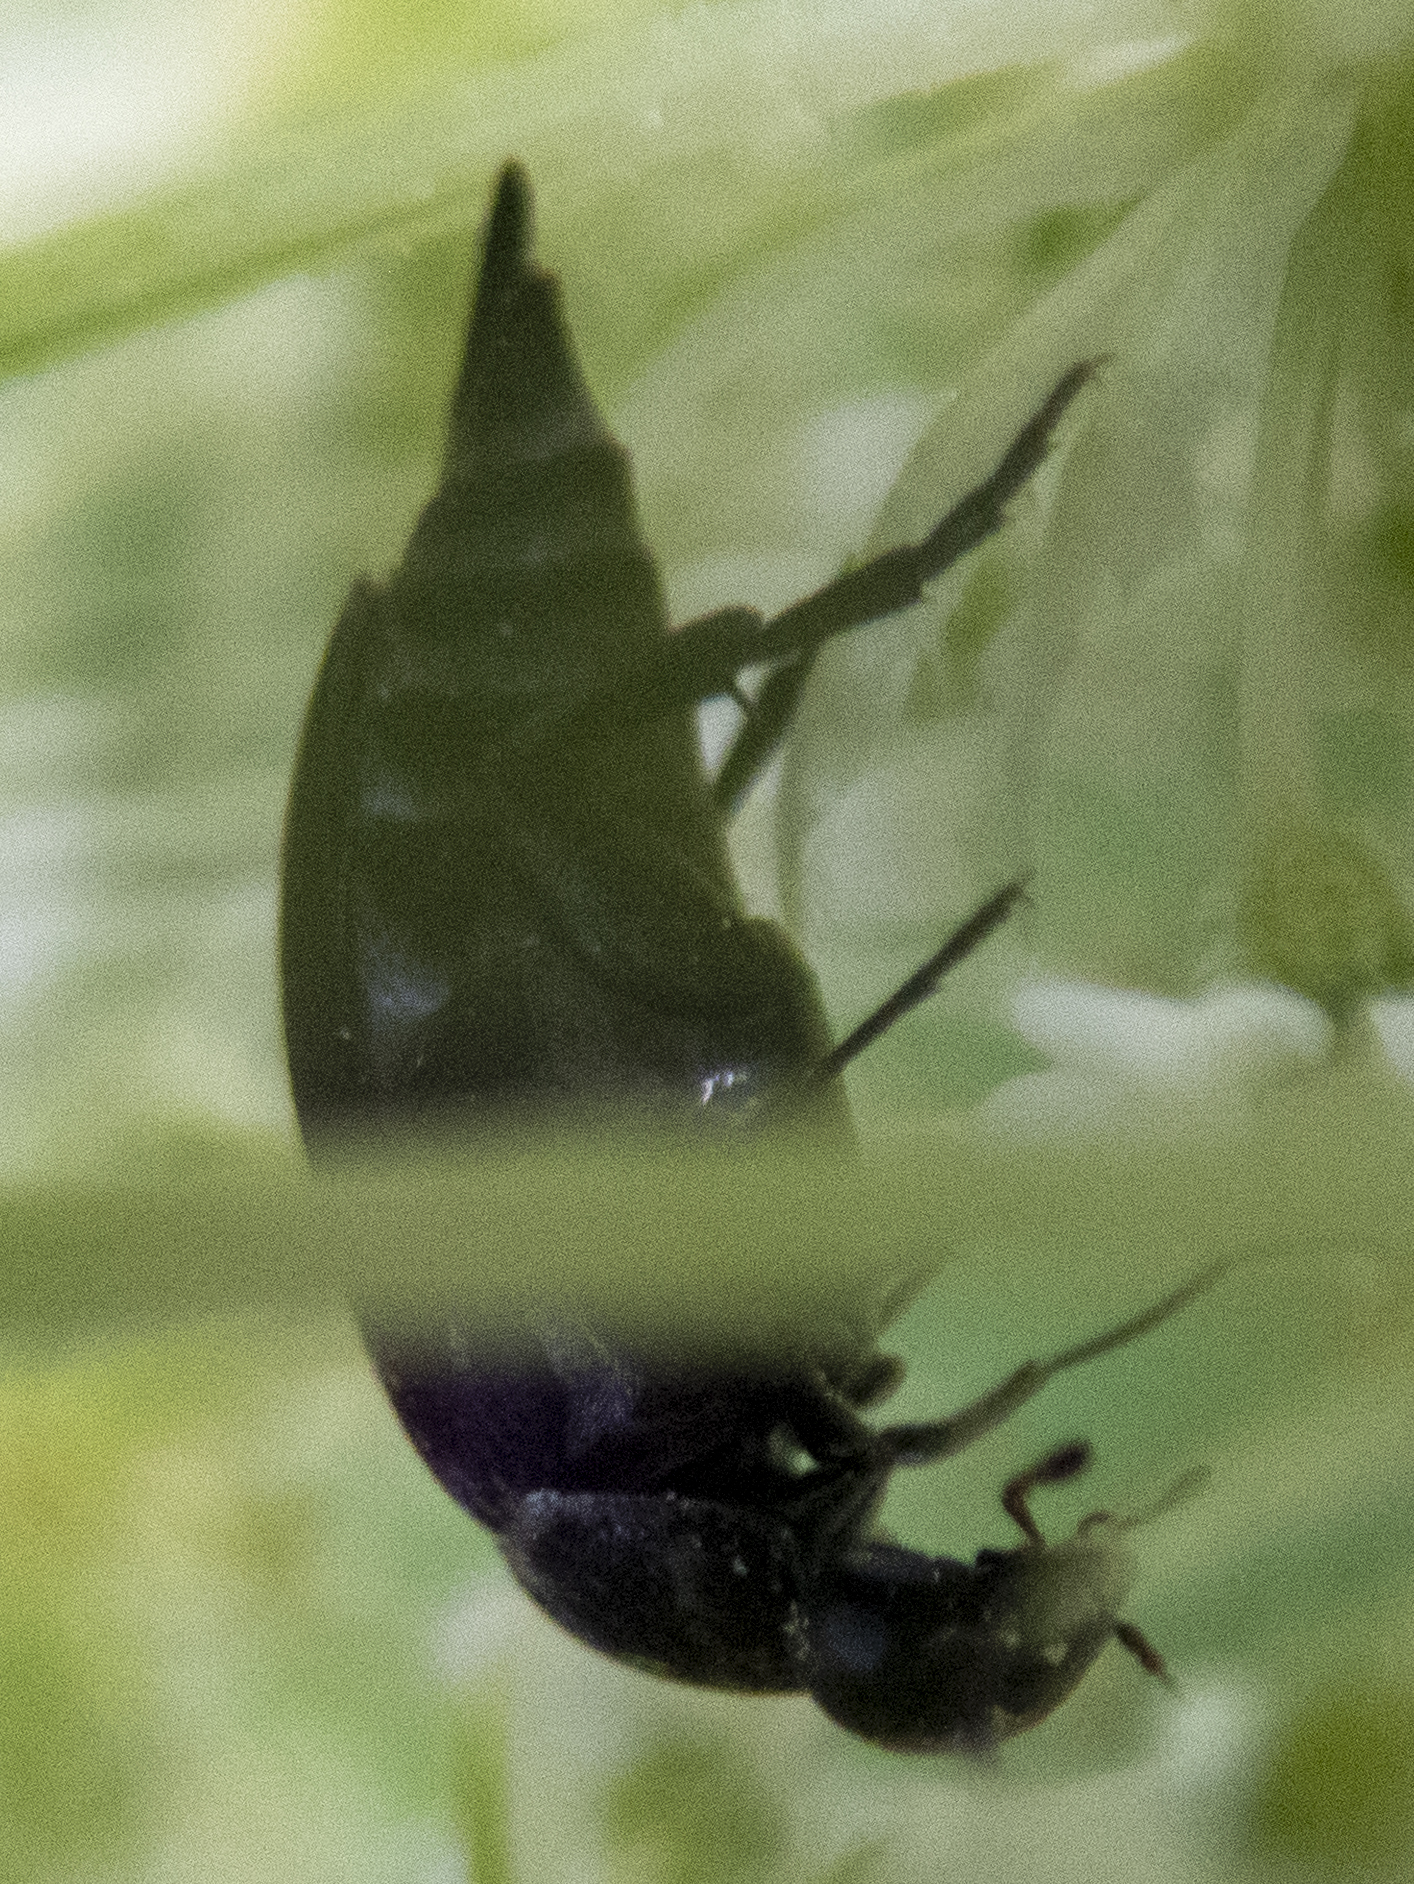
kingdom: Animalia
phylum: Arthropoda
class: Insecta
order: Coleoptera
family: Mordellidae
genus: Mordella
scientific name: Mordella marginata
